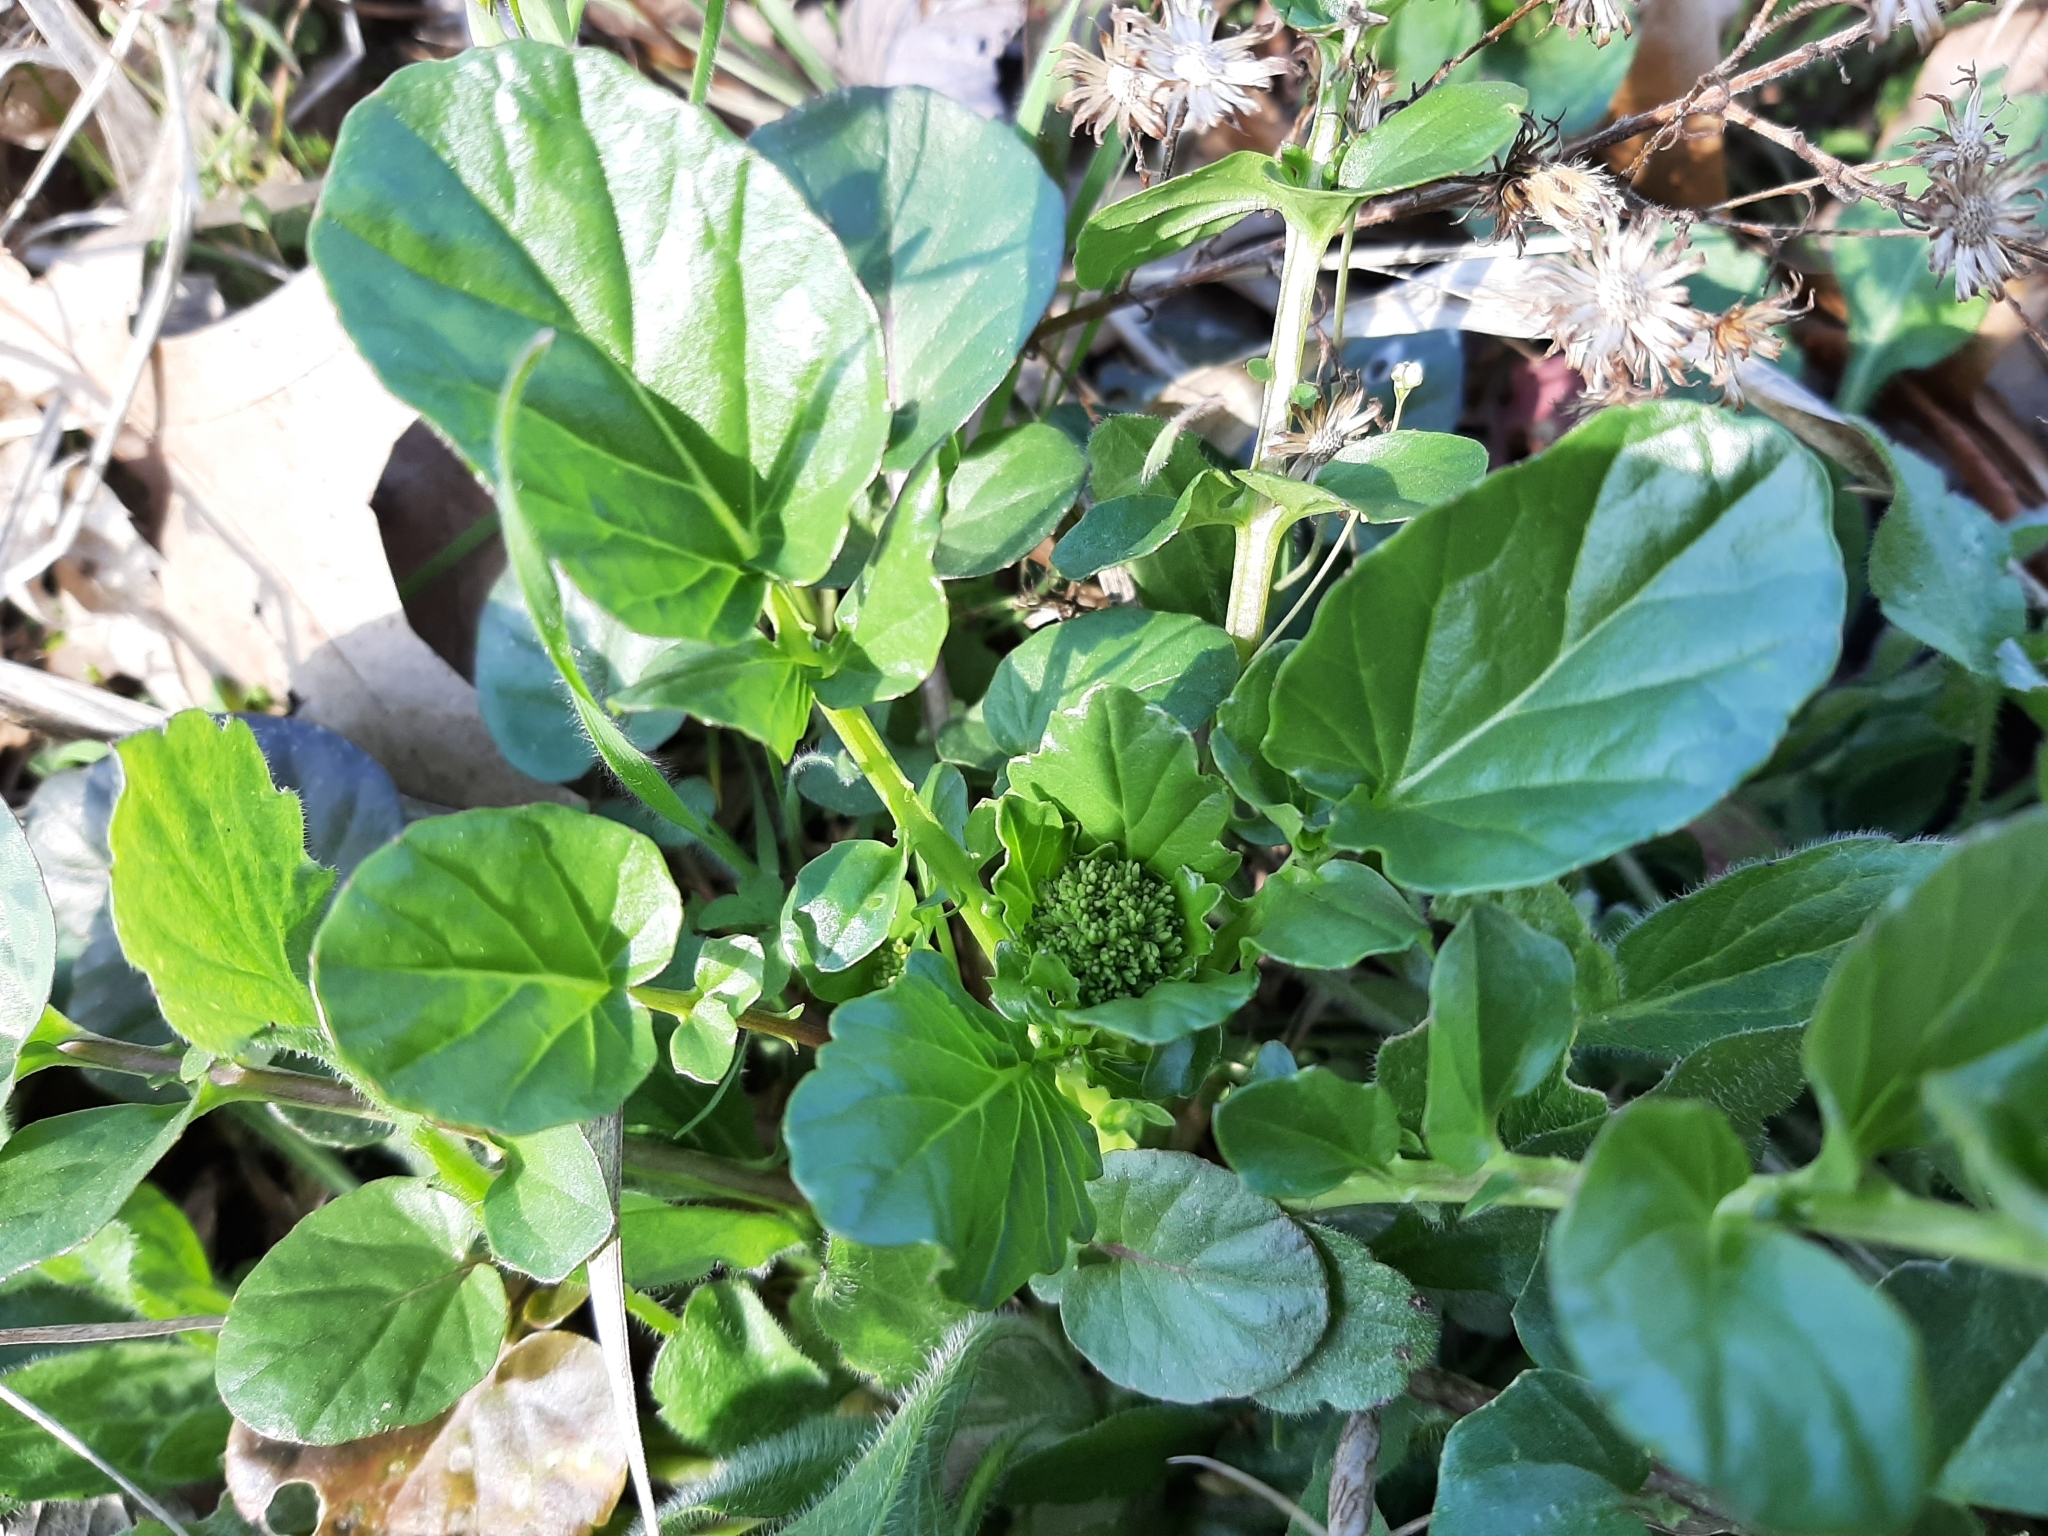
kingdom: Plantae
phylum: Tracheophyta
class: Magnoliopsida
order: Brassicales
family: Brassicaceae
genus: Barbarea
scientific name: Barbarea vulgaris
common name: Cressy-greens
